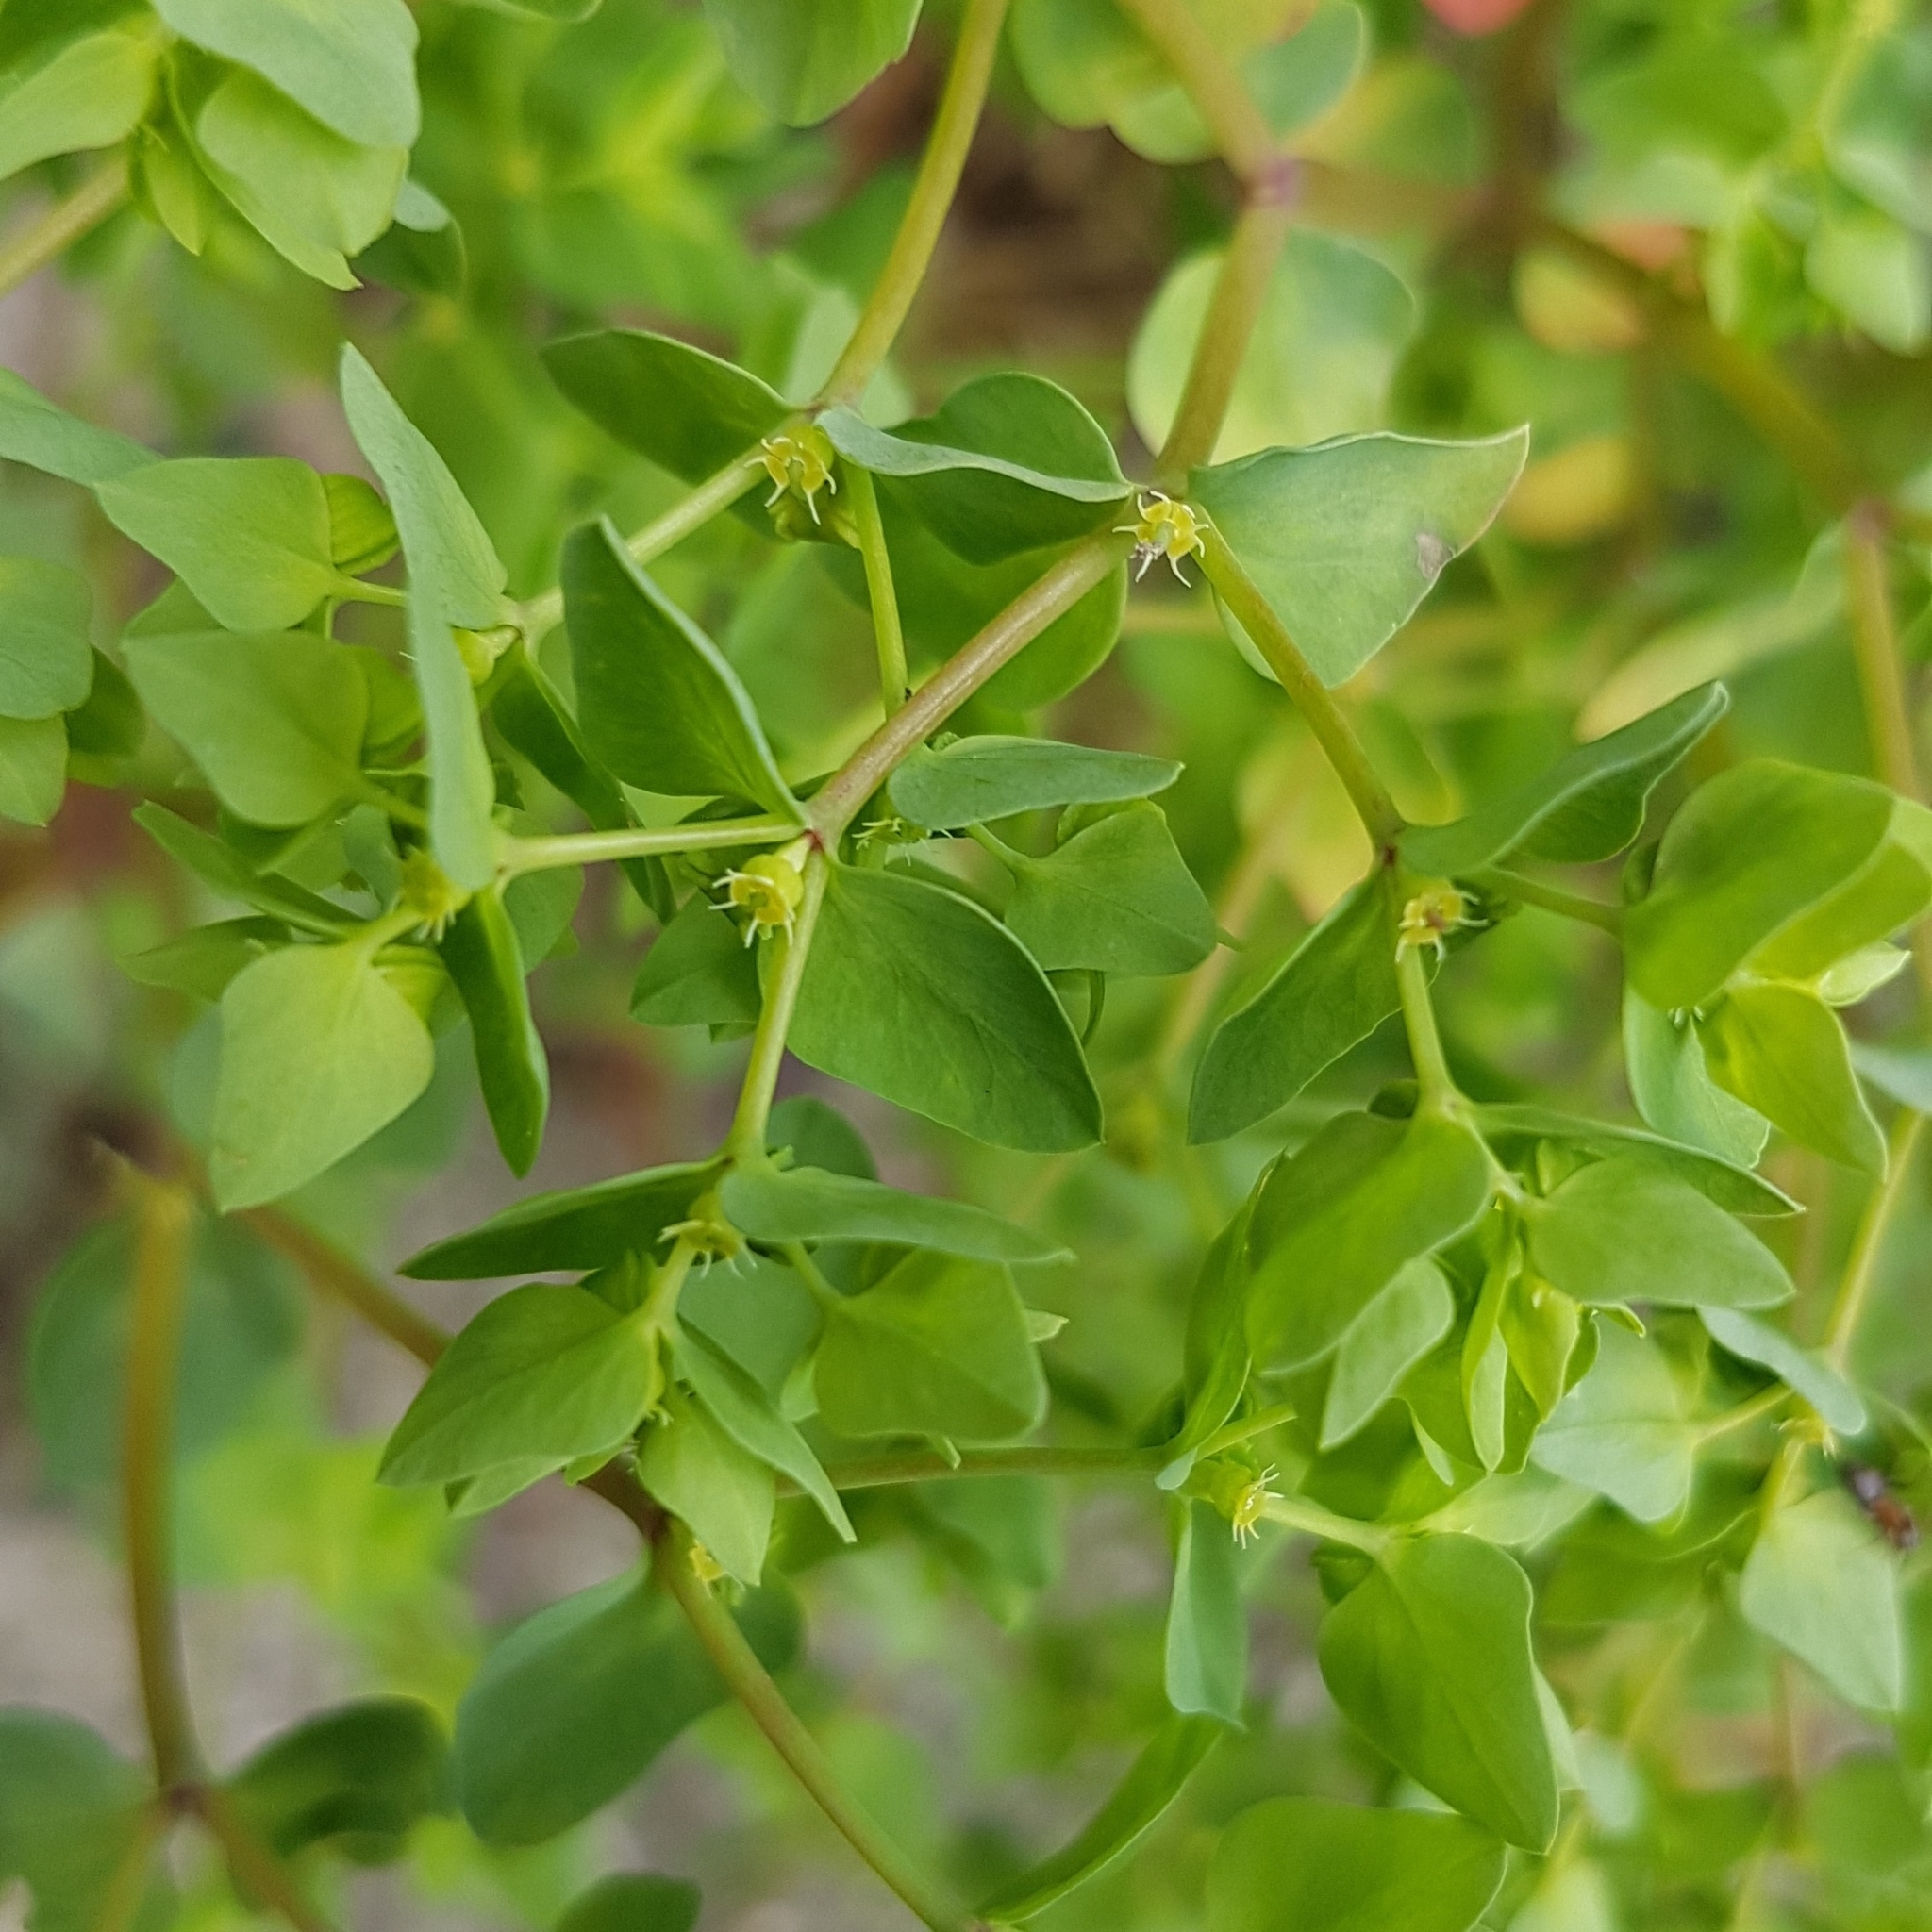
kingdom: Plantae
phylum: Tracheophyta
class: Magnoliopsida
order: Malpighiales
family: Euphorbiaceae
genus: Euphorbia
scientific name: Euphorbia peplus
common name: Petty spurge
